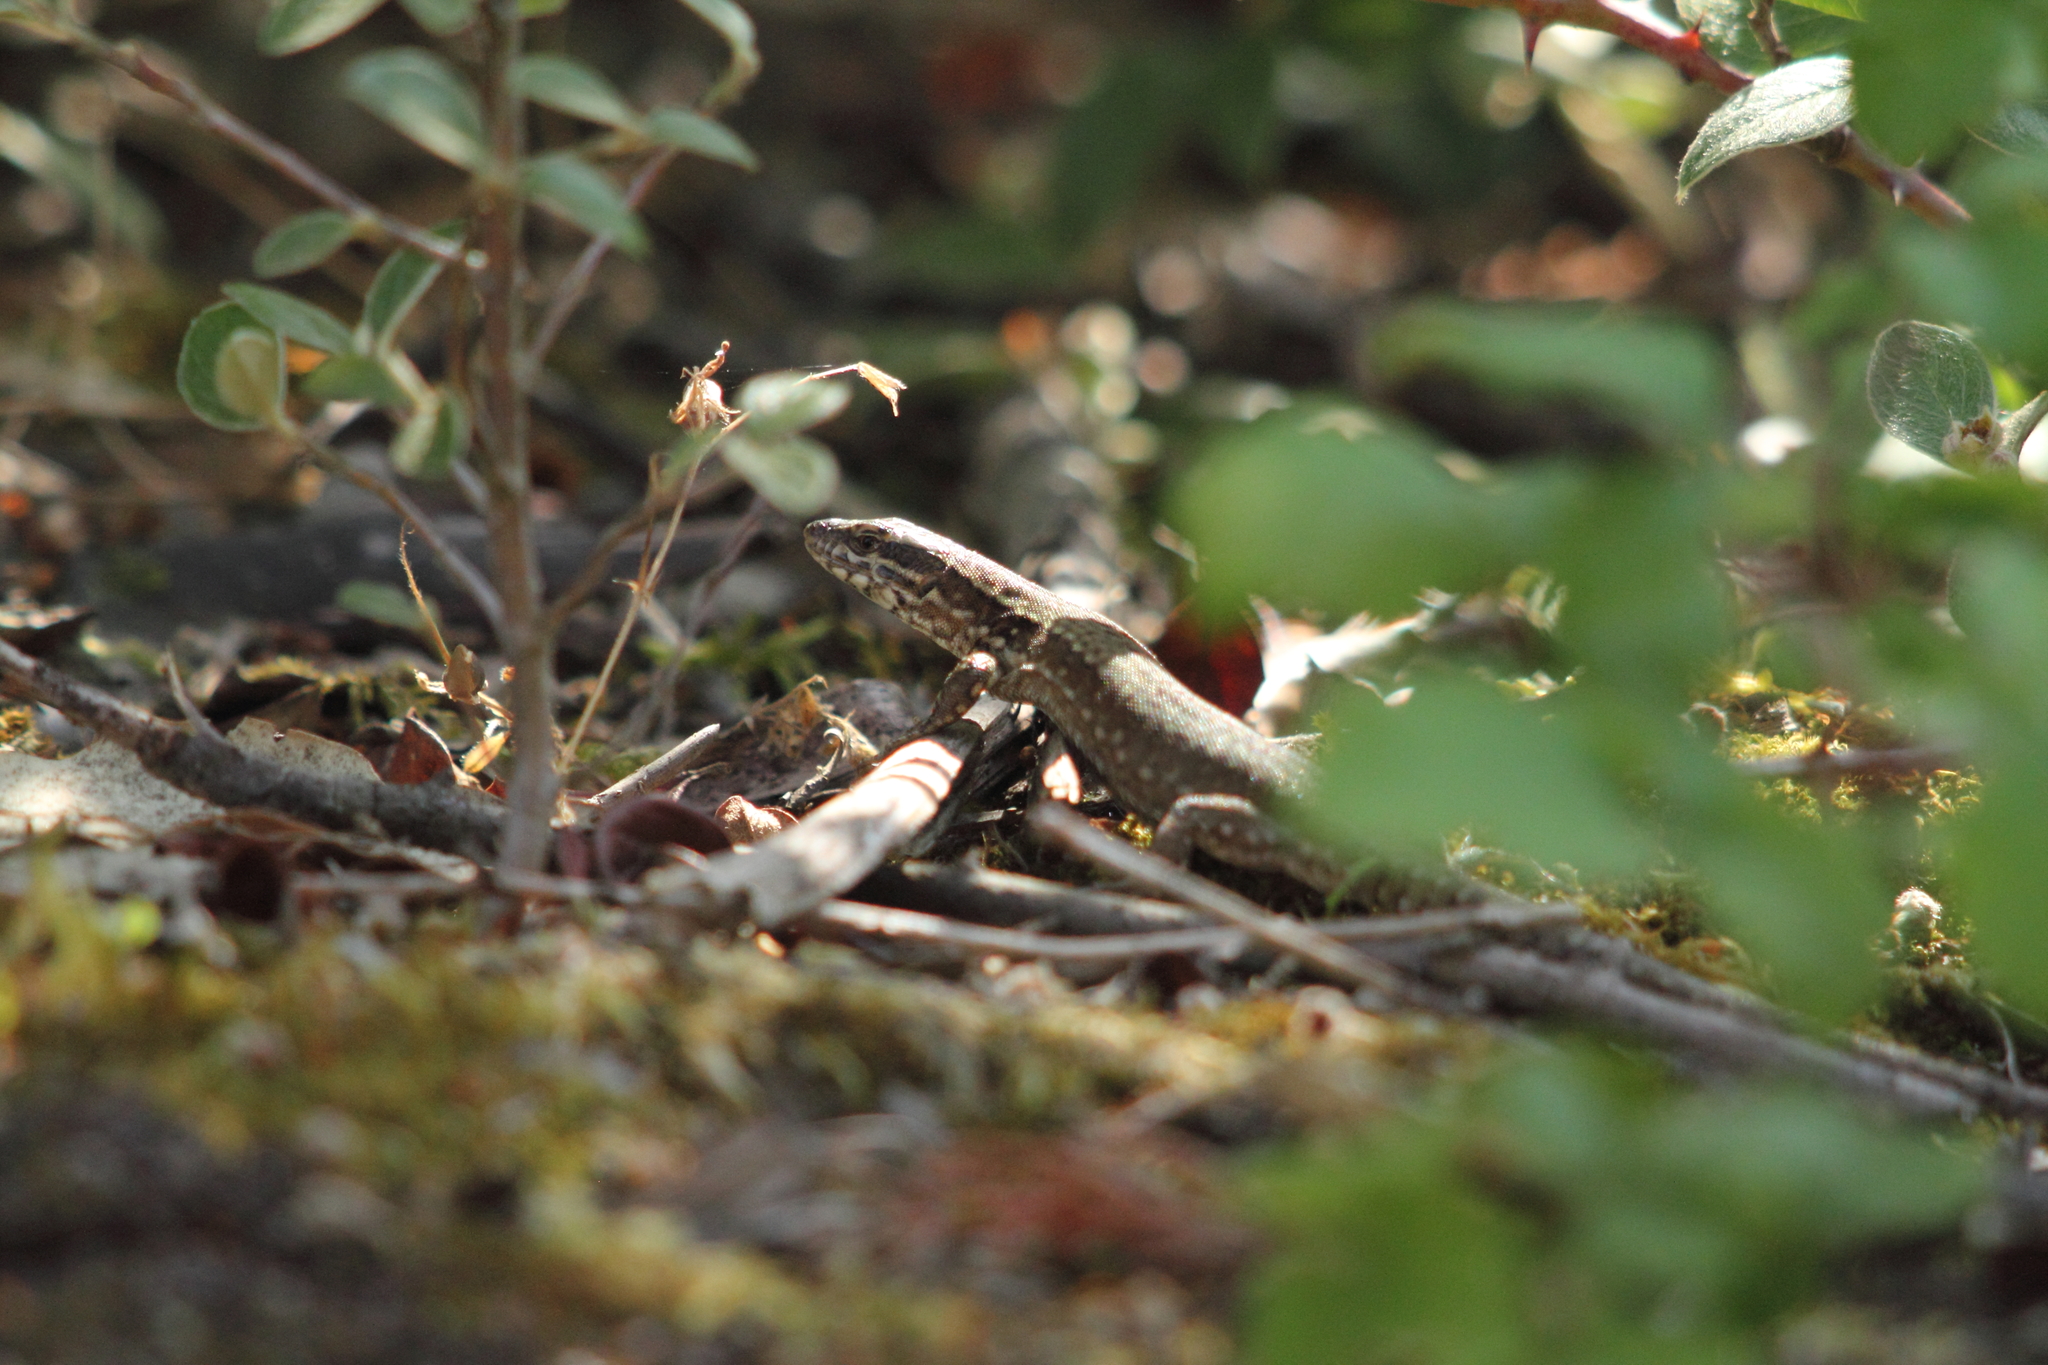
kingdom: Animalia
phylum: Chordata
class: Squamata
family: Lacertidae
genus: Podarcis
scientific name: Podarcis muralis
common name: Common wall lizard
